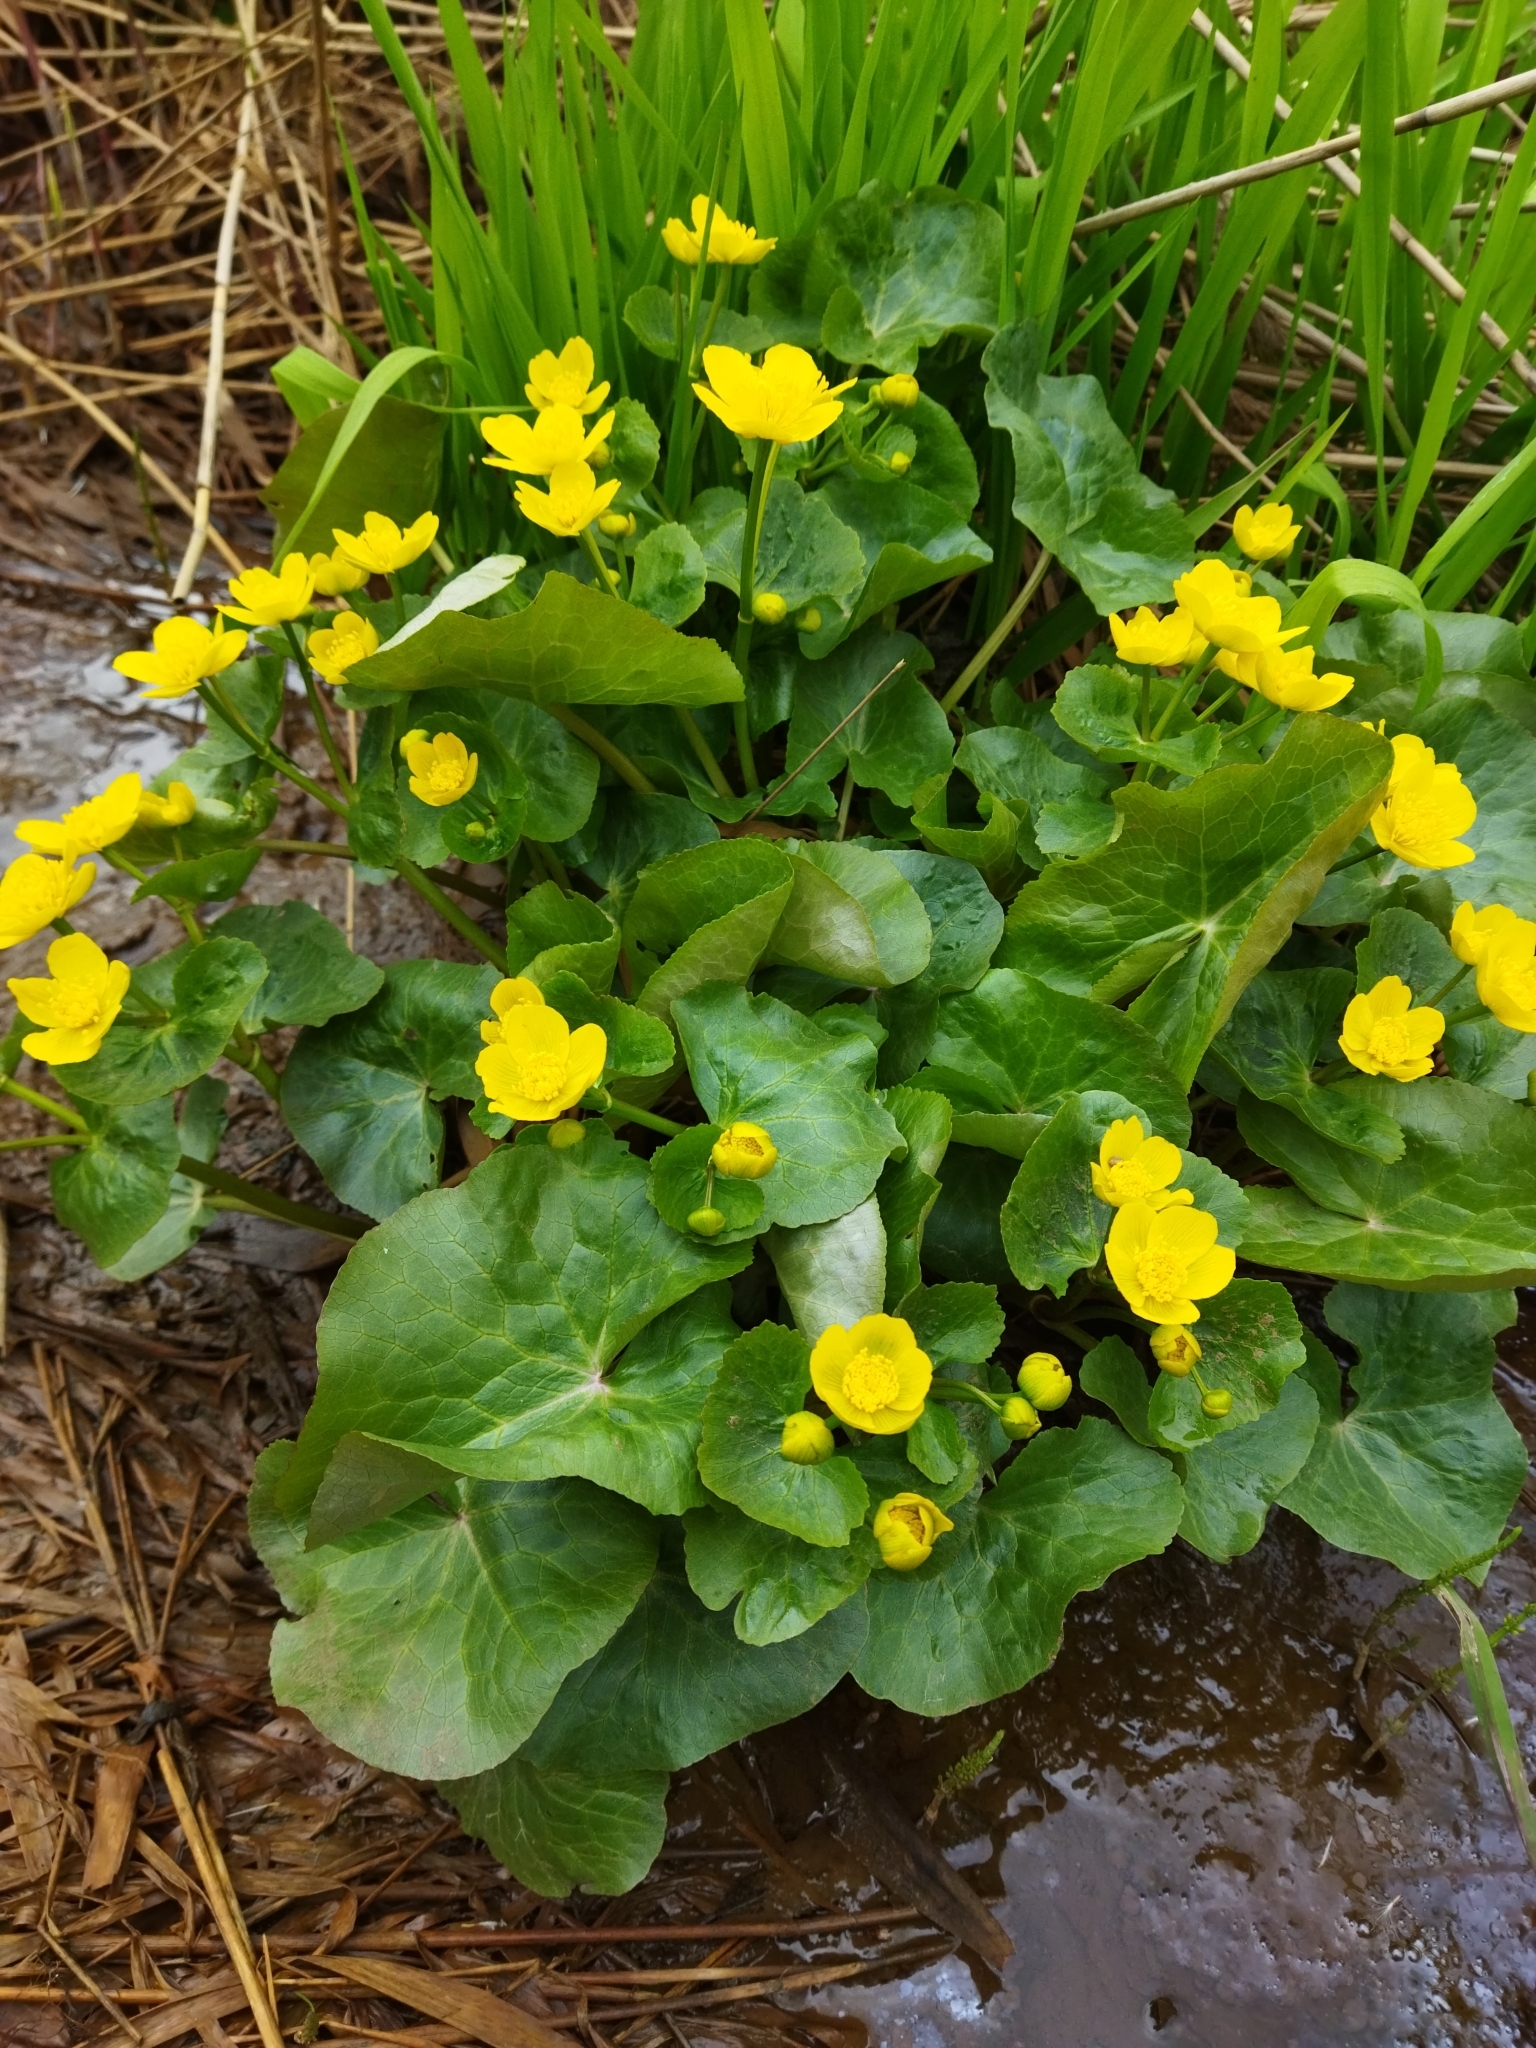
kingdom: Plantae
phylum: Tracheophyta
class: Magnoliopsida
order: Ranunculales
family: Ranunculaceae
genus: Caltha
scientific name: Caltha palustris
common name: Marsh marigold
